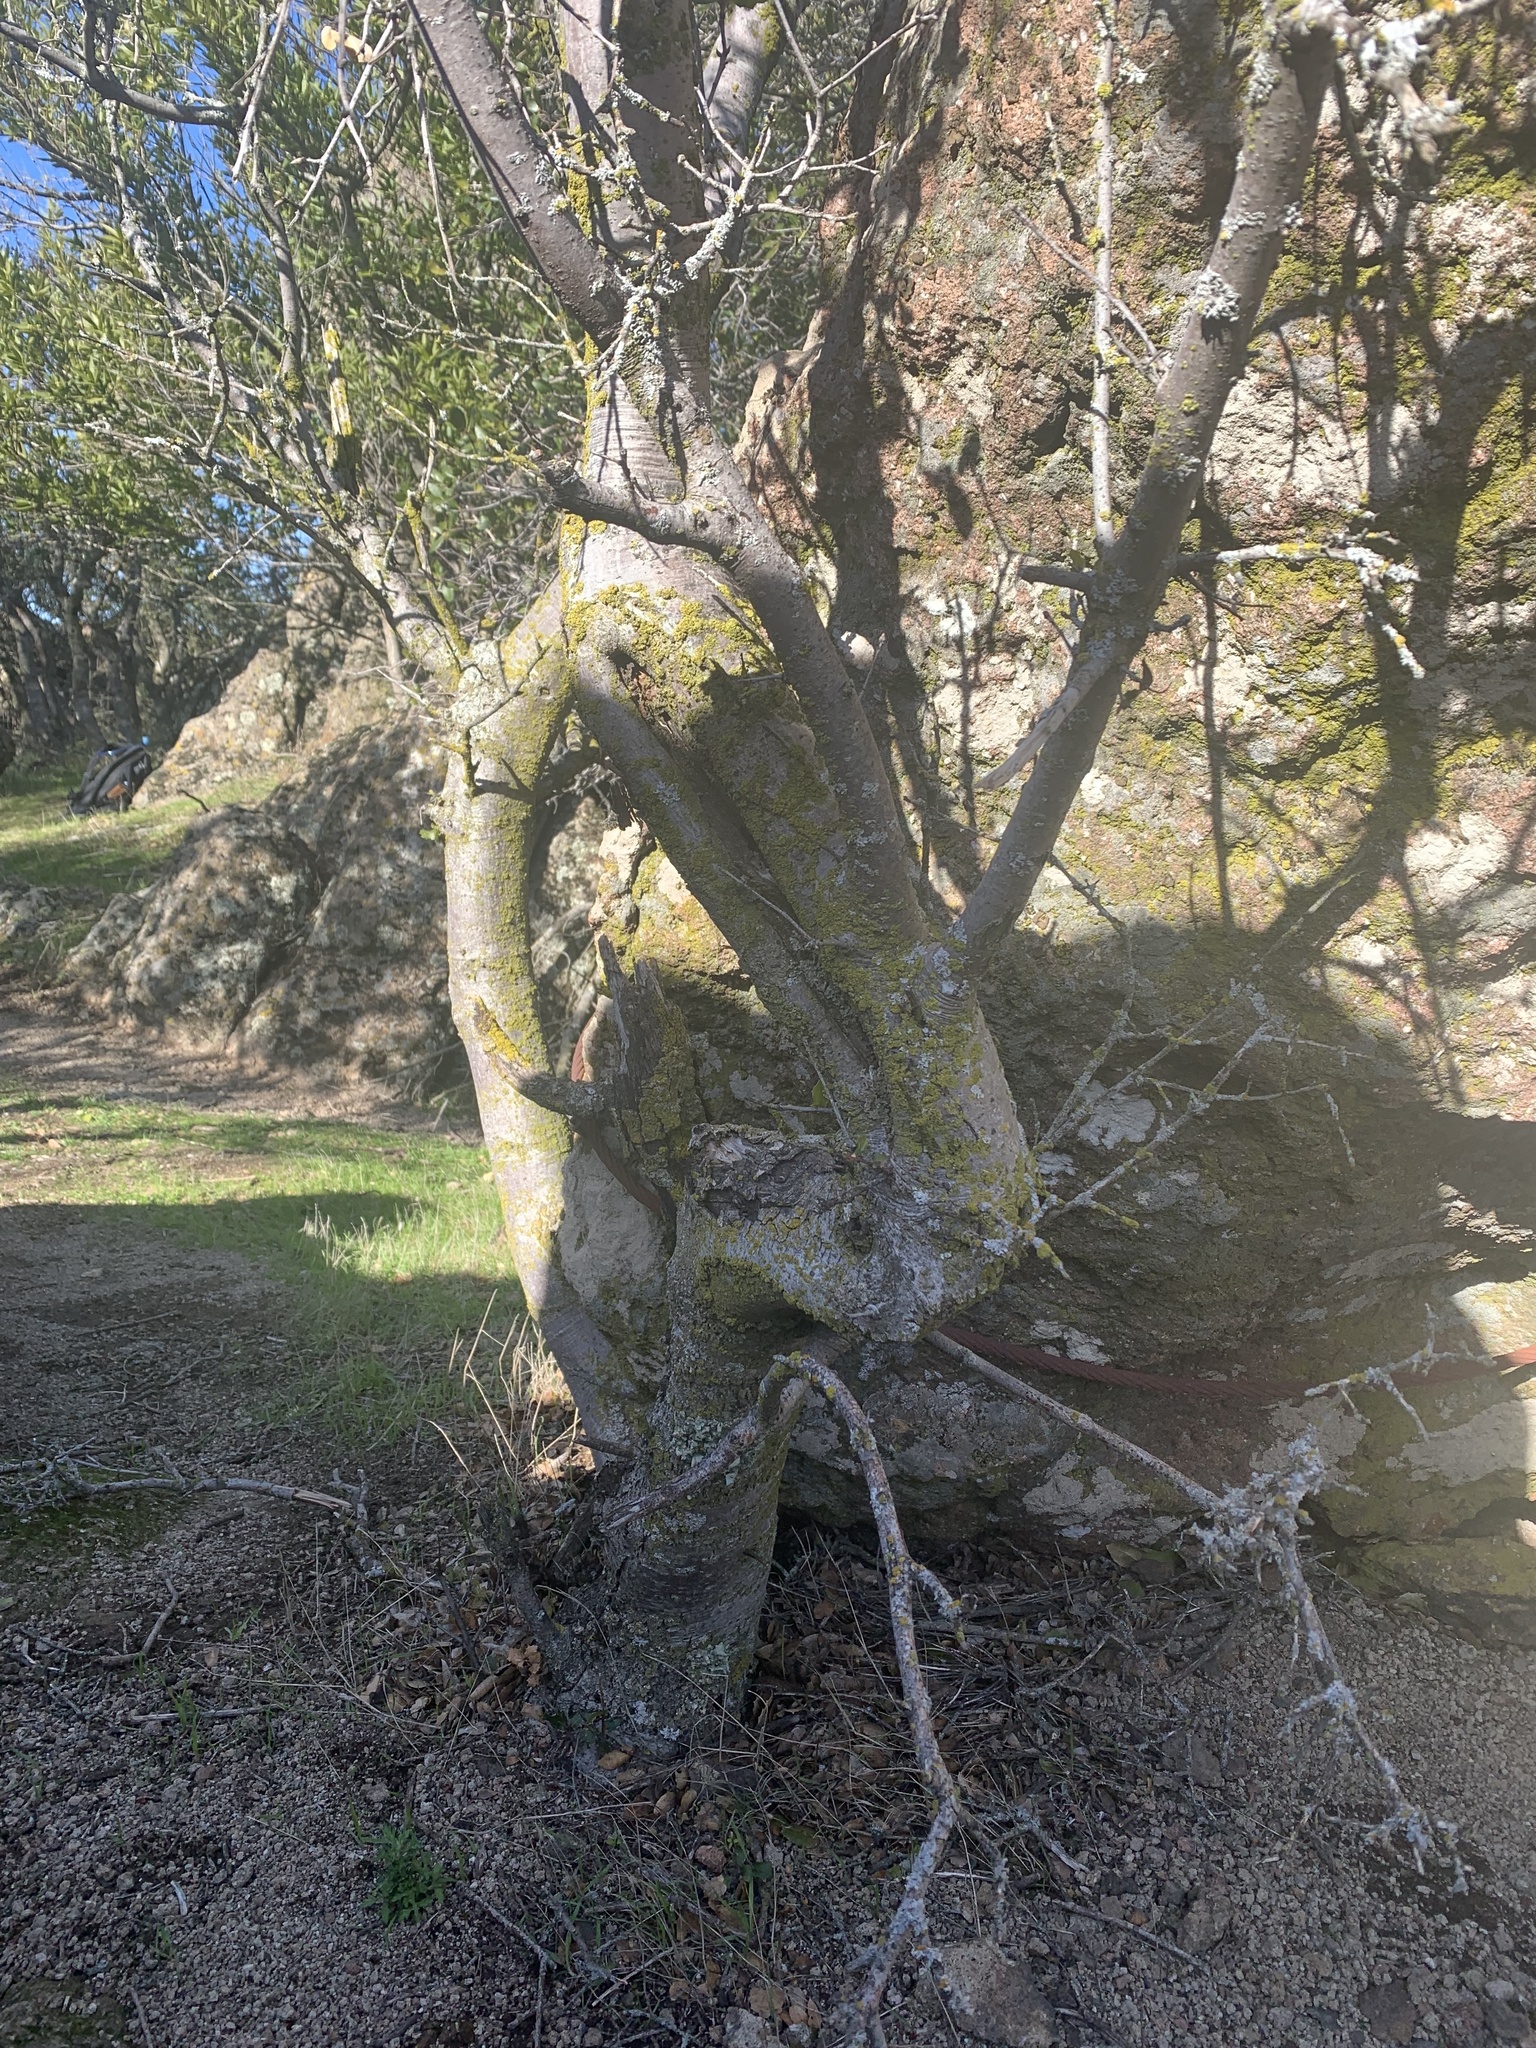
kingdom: Plantae
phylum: Tracheophyta
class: Magnoliopsida
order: Fagales
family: Fagaceae
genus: Quercus
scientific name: Quercus wislizeni
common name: Interior live oak
